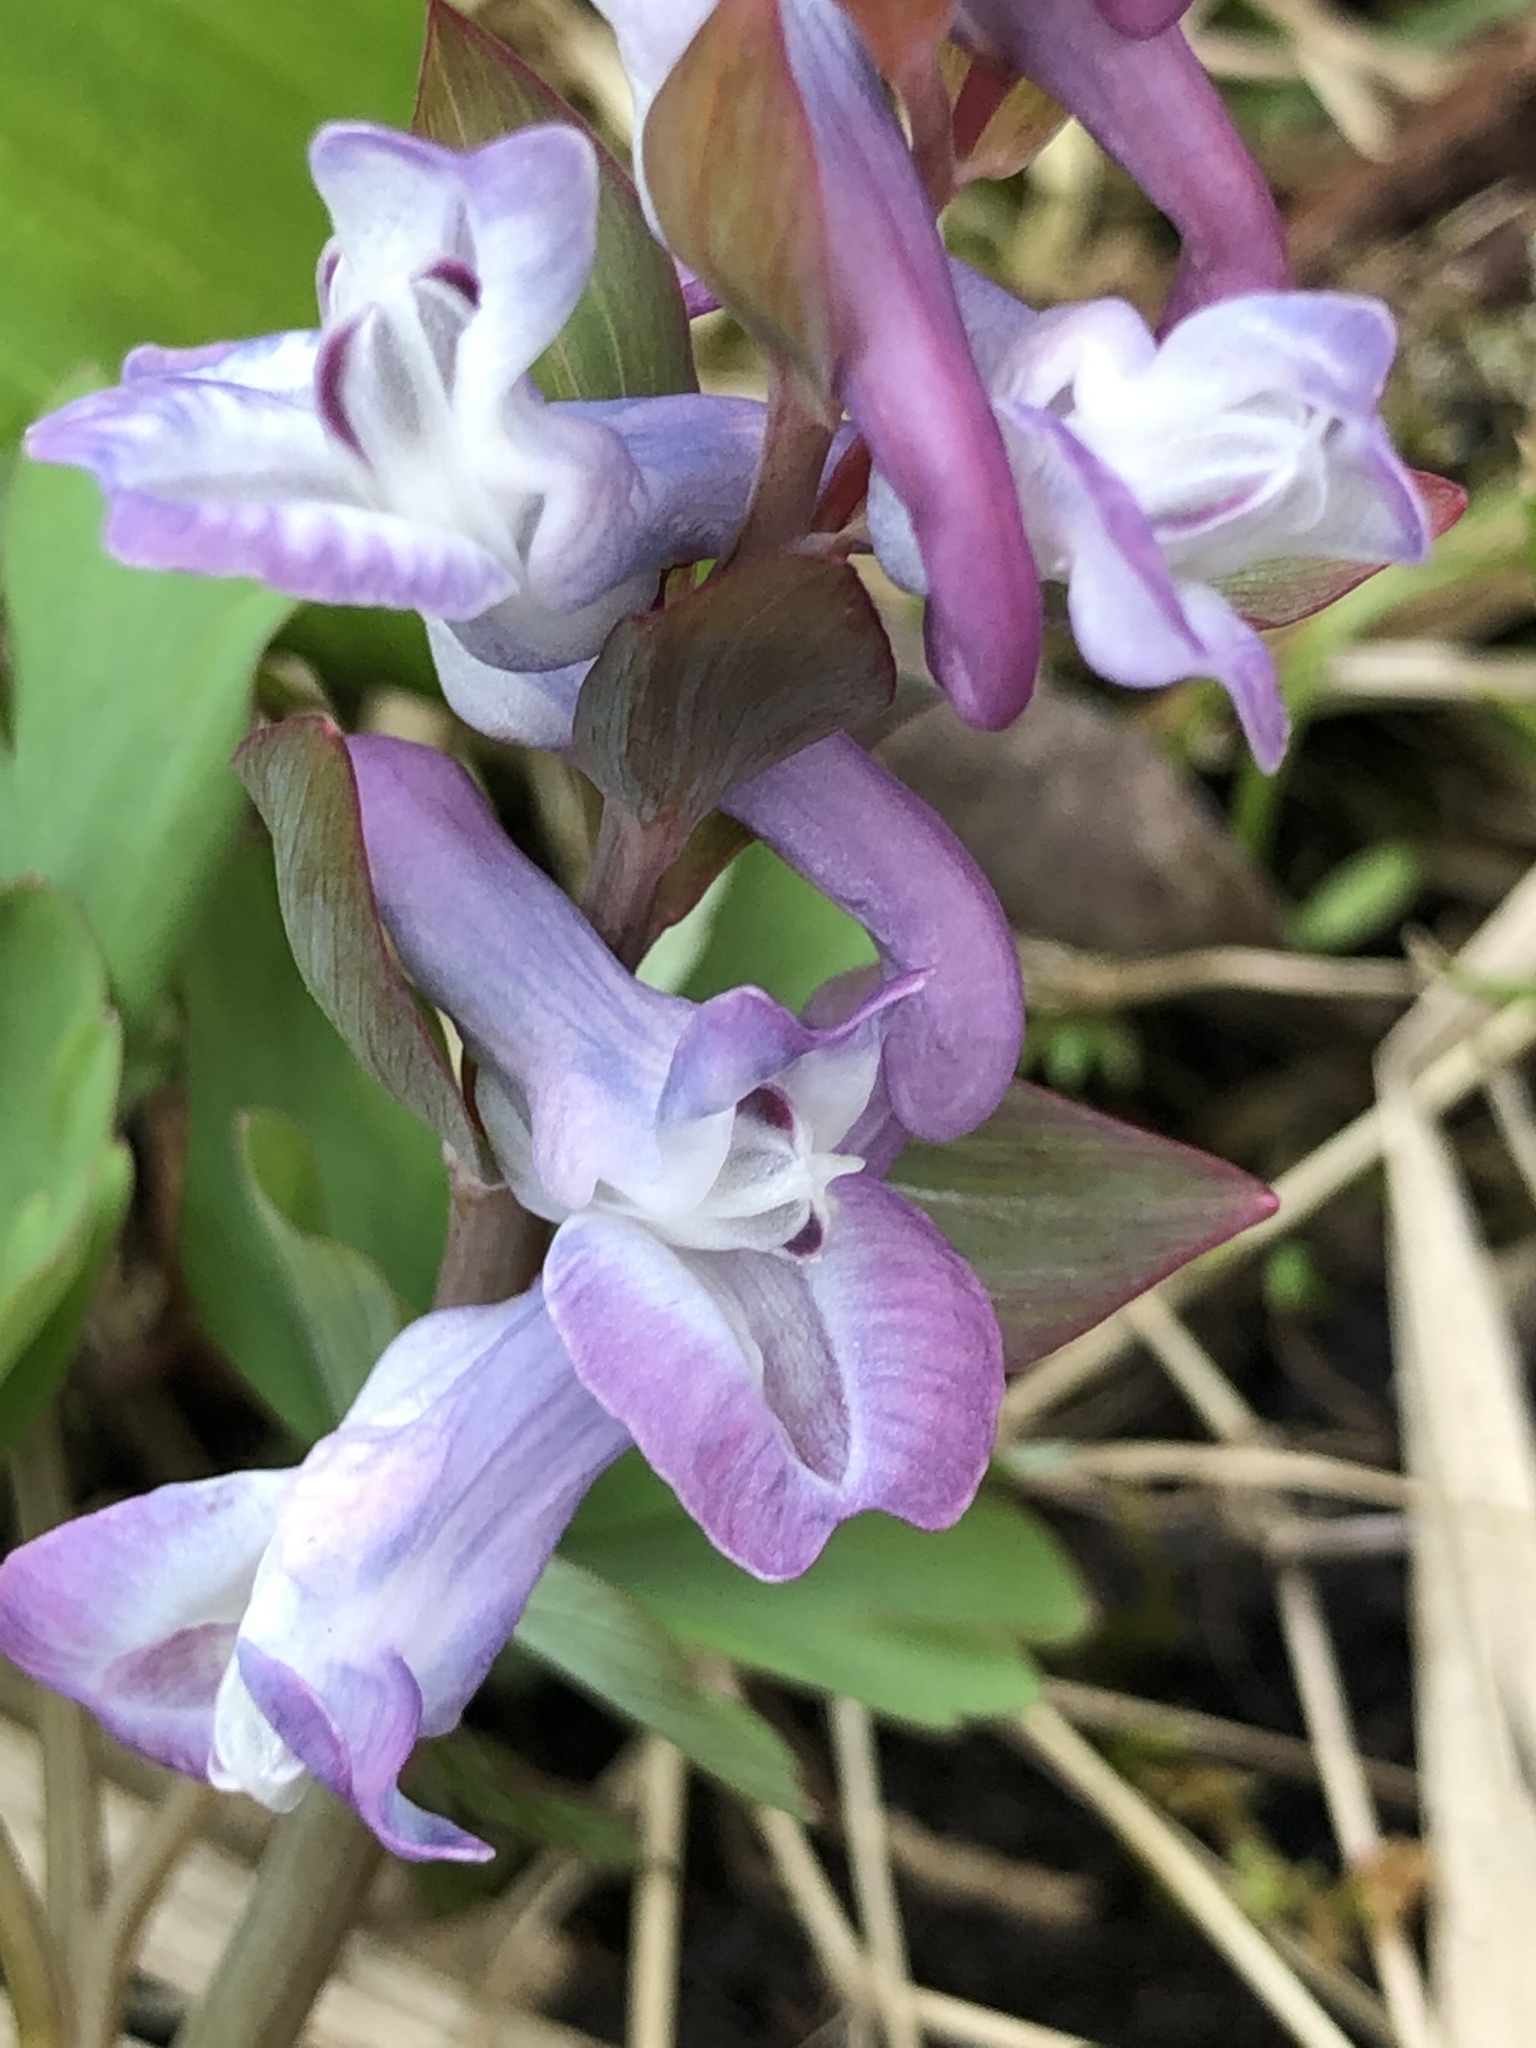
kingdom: Plantae
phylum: Tracheophyta
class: Magnoliopsida
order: Ranunculales
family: Papaveraceae
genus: Corydalis
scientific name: Corydalis cava
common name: Hollowroot
